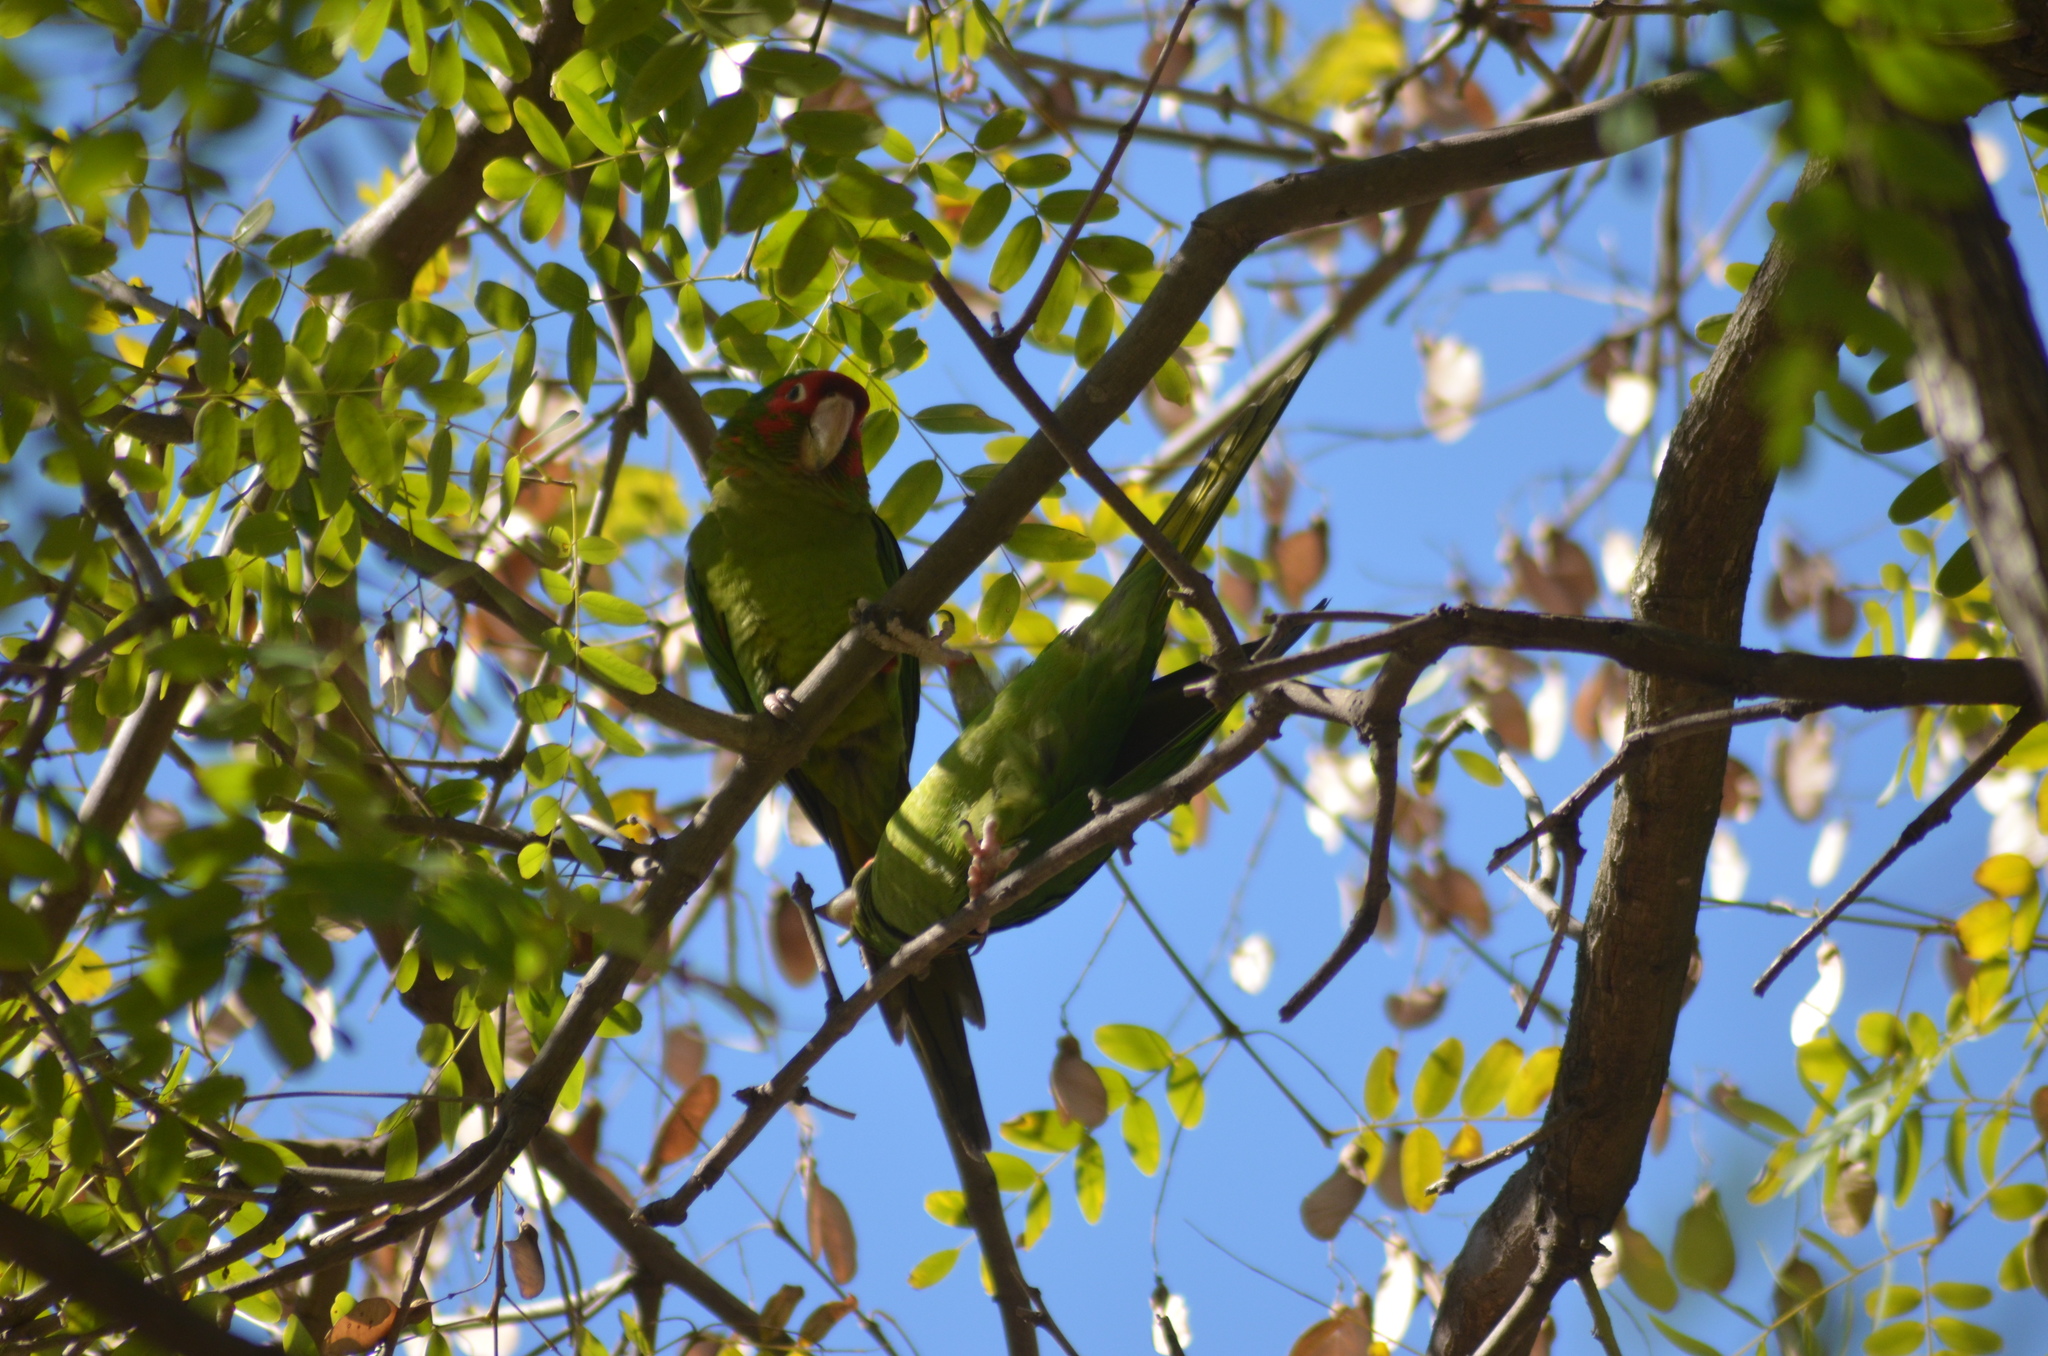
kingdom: Animalia
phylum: Chordata
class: Aves
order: Psittaciformes
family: Psittacidae
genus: Aratinga
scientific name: Aratinga mitrata
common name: Mitred parakeet
